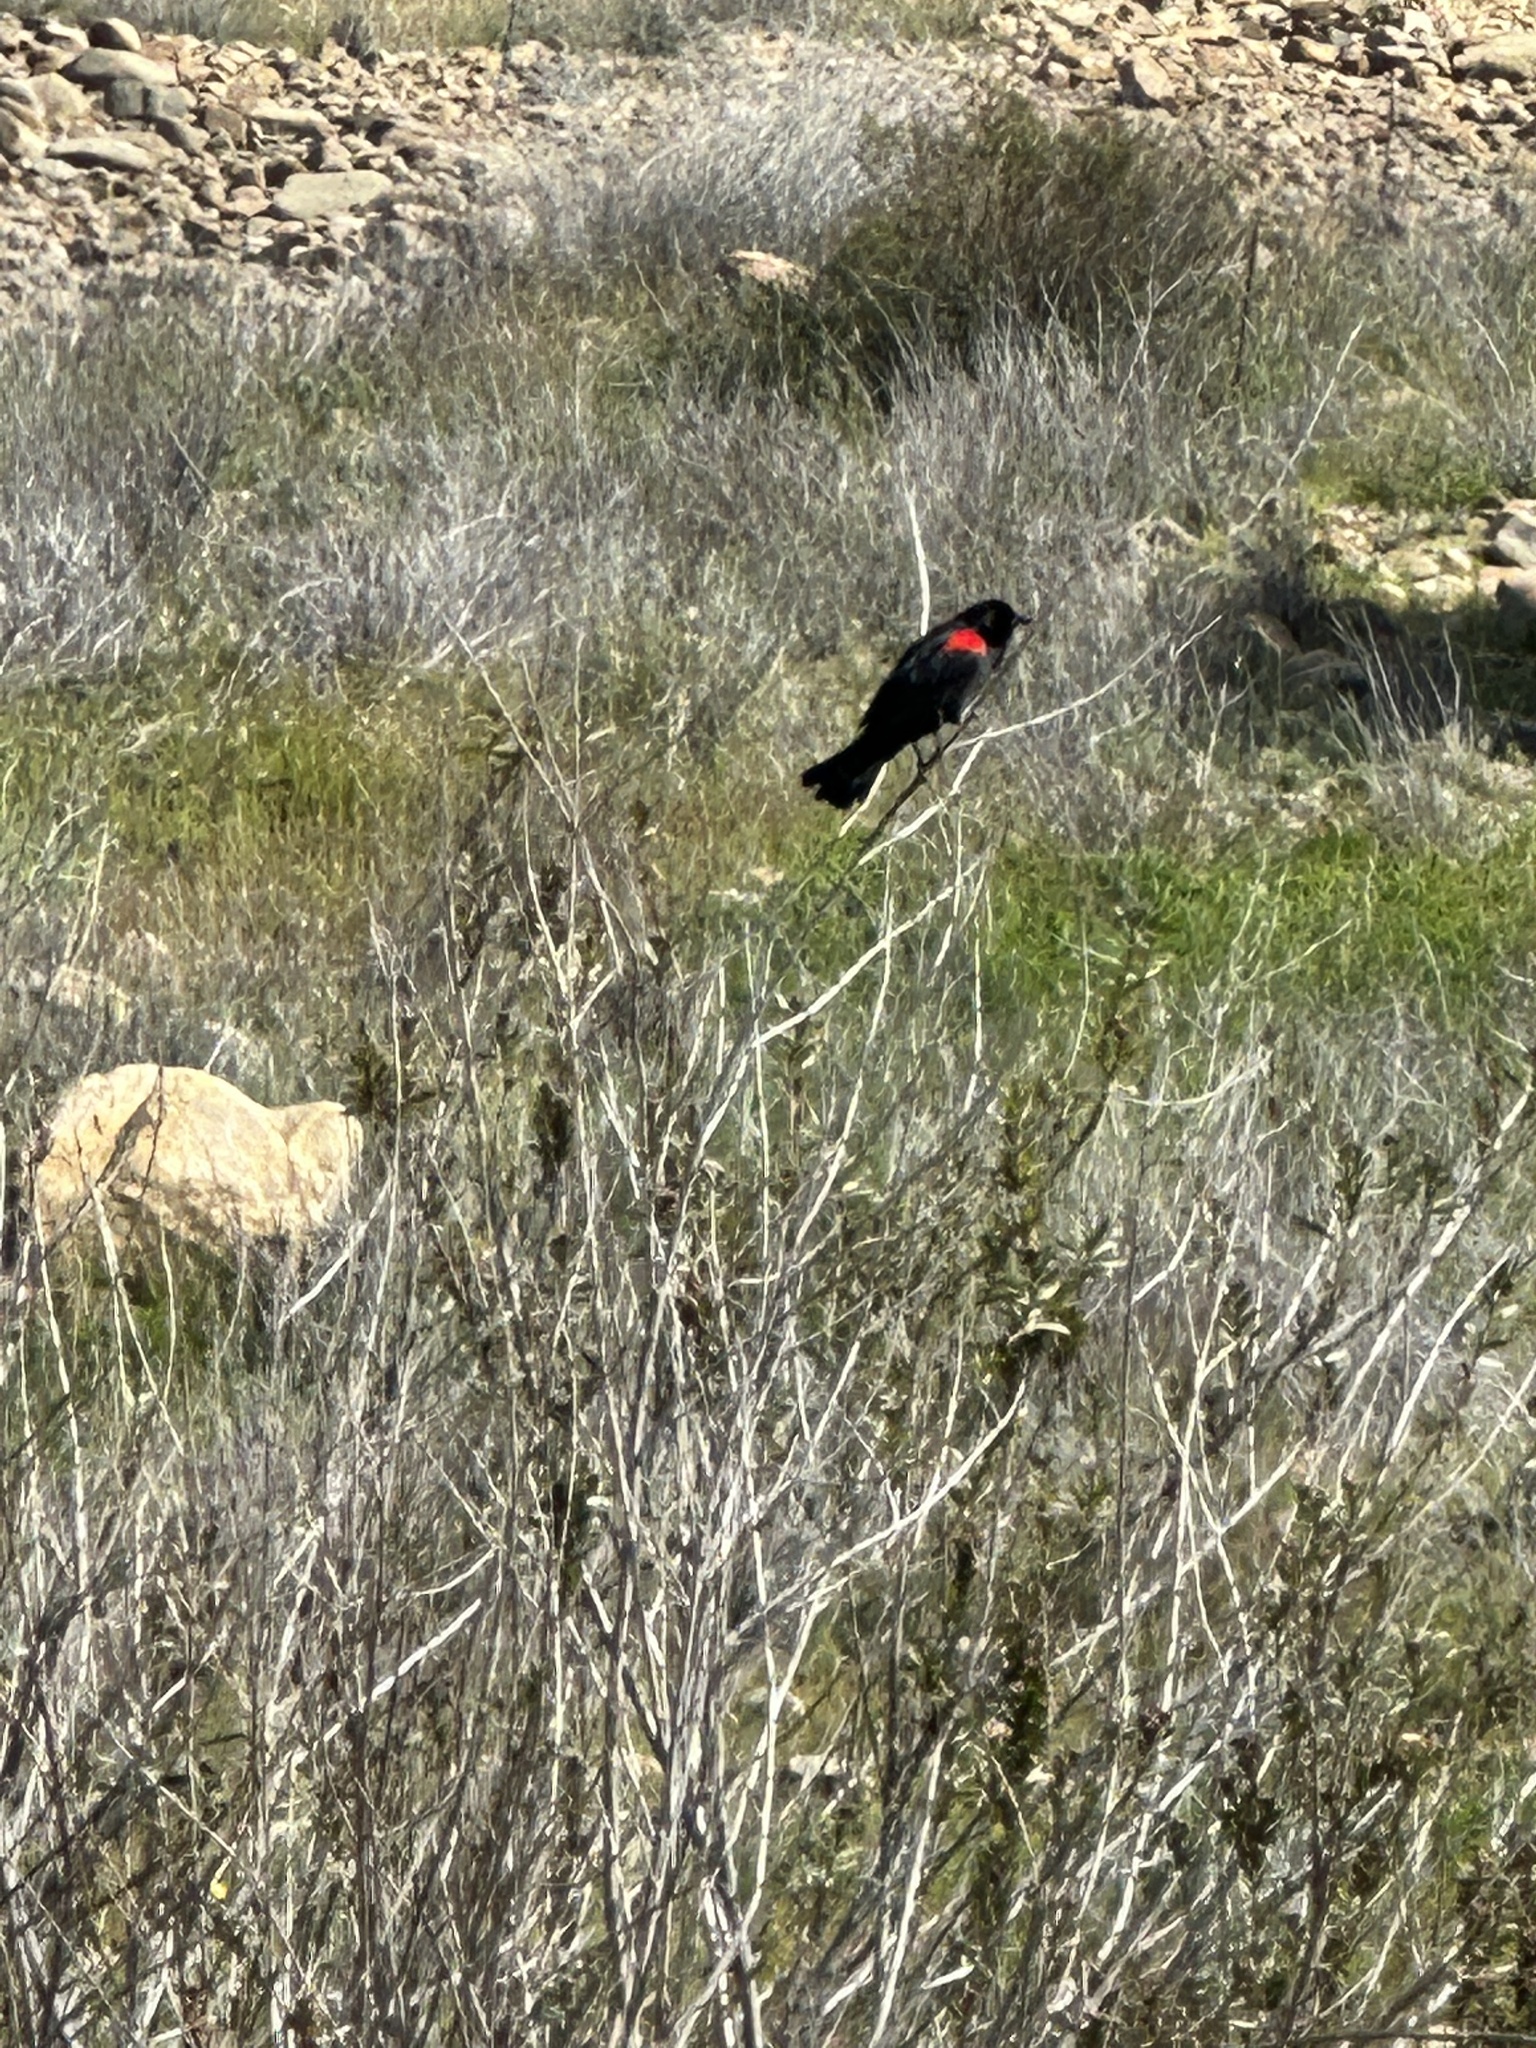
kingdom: Animalia
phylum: Chordata
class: Aves
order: Passeriformes
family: Icteridae
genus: Agelaius
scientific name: Agelaius phoeniceus
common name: Red-winged blackbird
